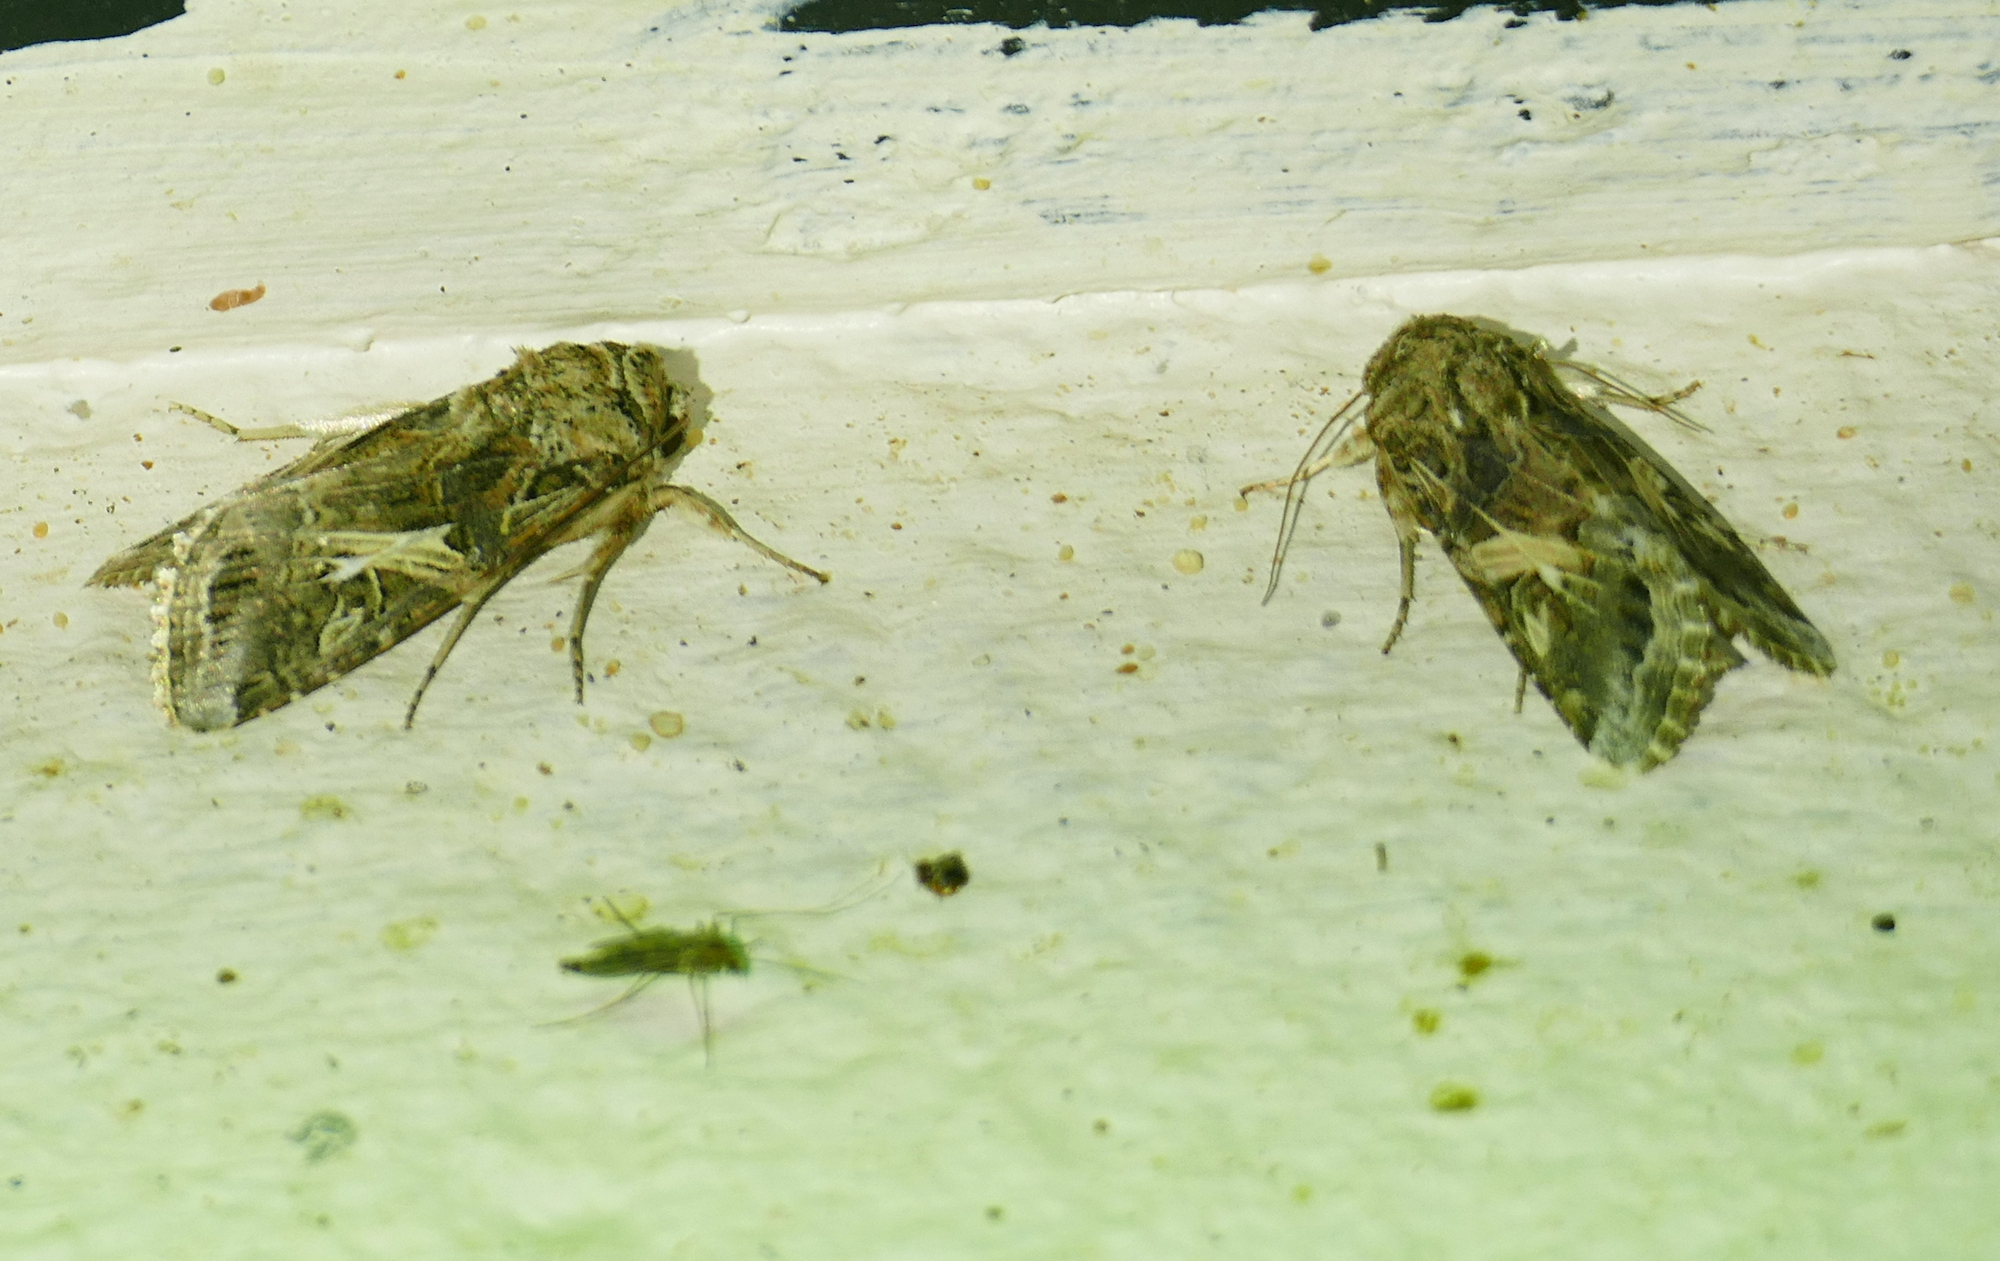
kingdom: Animalia
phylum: Arthropoda
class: Insecta
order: Lepidoptera
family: Noctuidae
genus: Spodoptera
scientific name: Spodoptera ornithogalli
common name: Yellow-striped armyworm
